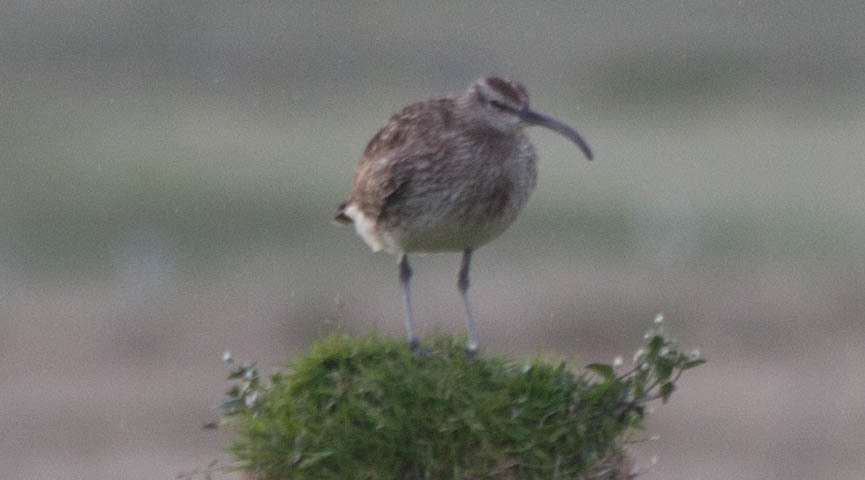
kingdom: Animalia
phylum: Chordata
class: Aves
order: Charadriiformes
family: Scolopacidae
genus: Numenius
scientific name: Numenius phaeopus
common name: Whimbrel
